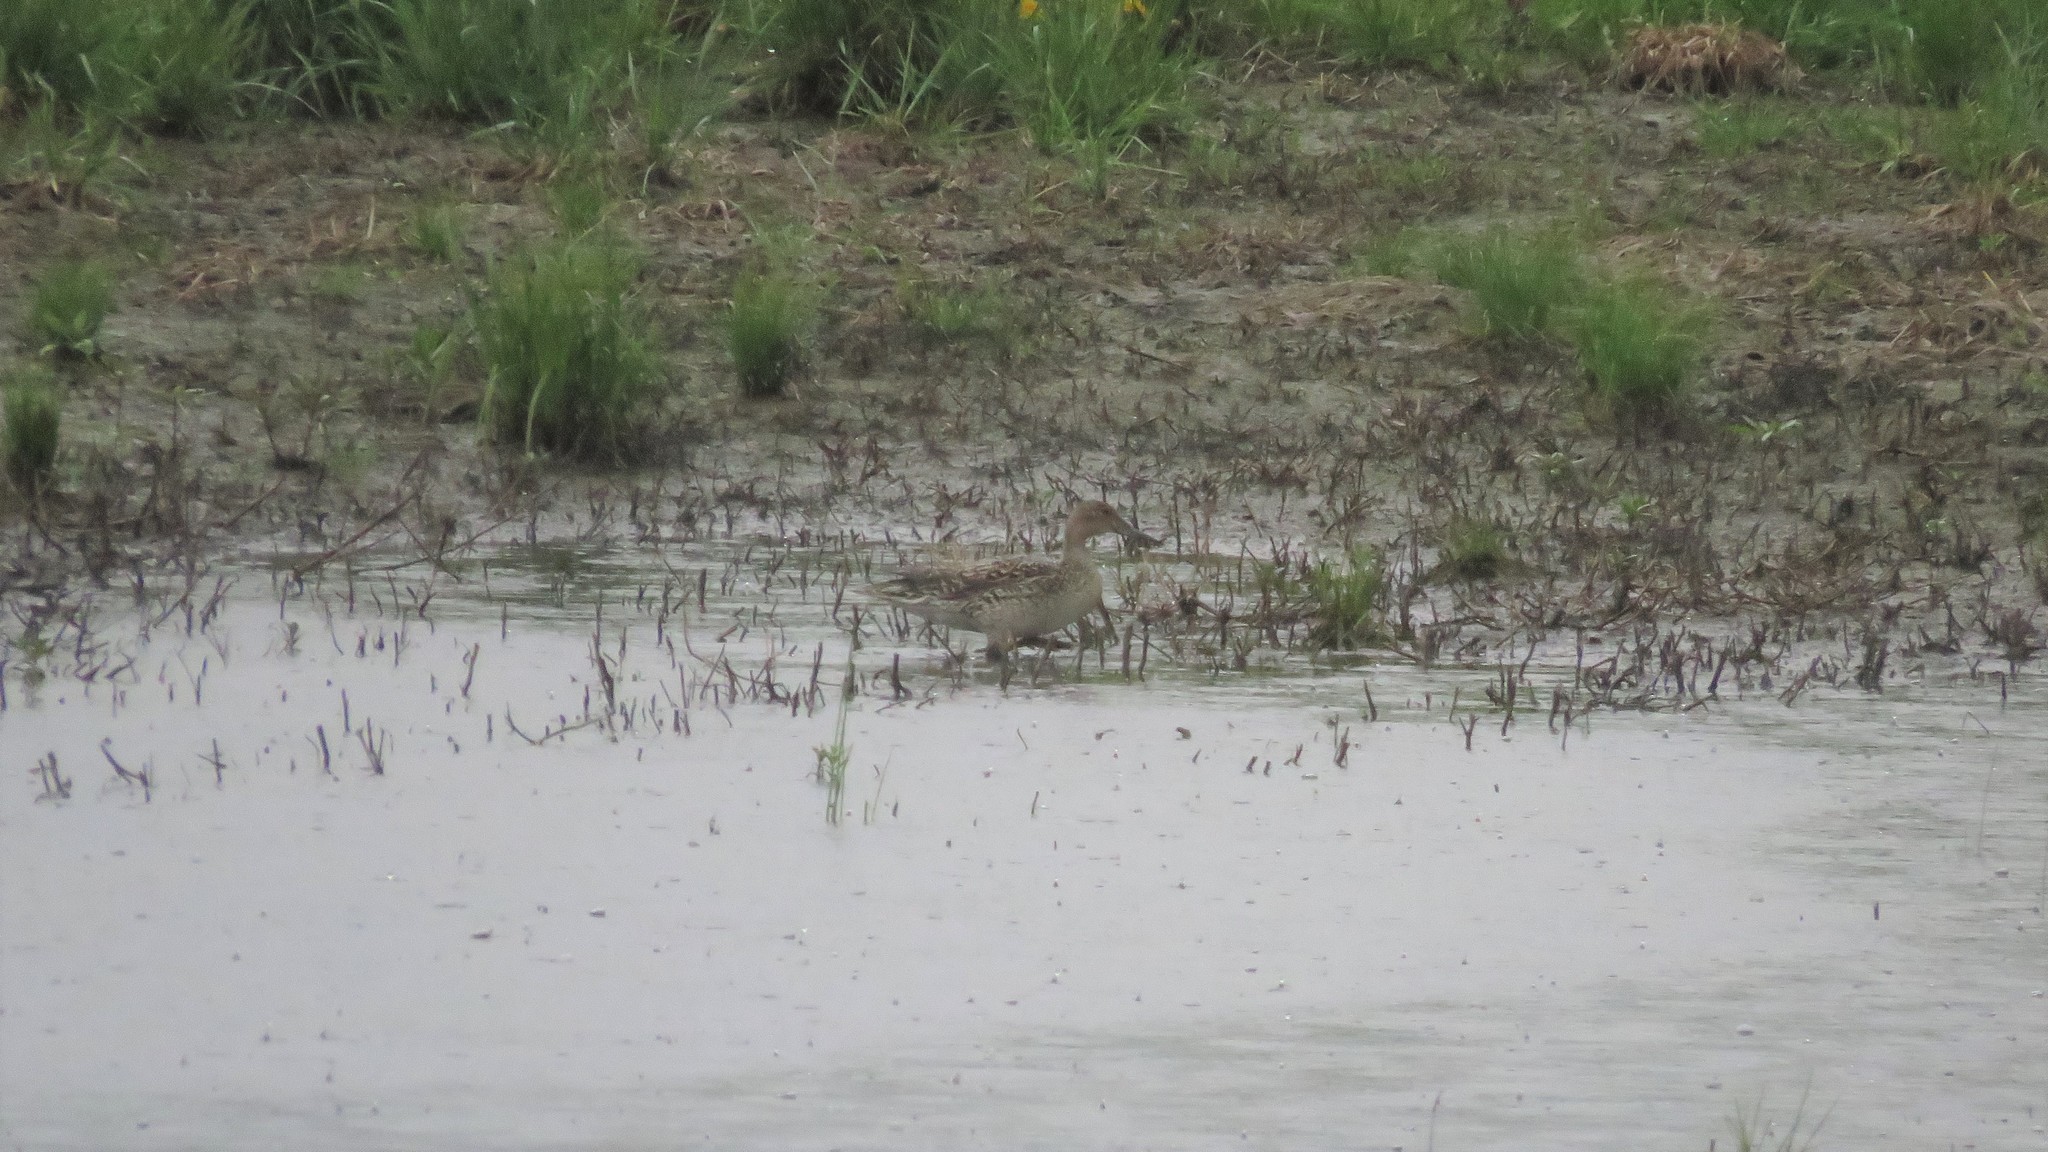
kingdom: Animalia
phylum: Chordata
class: Aves
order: Anseriformes
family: Anatidae
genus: Anas
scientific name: Anas acuta
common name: Northern pintail
